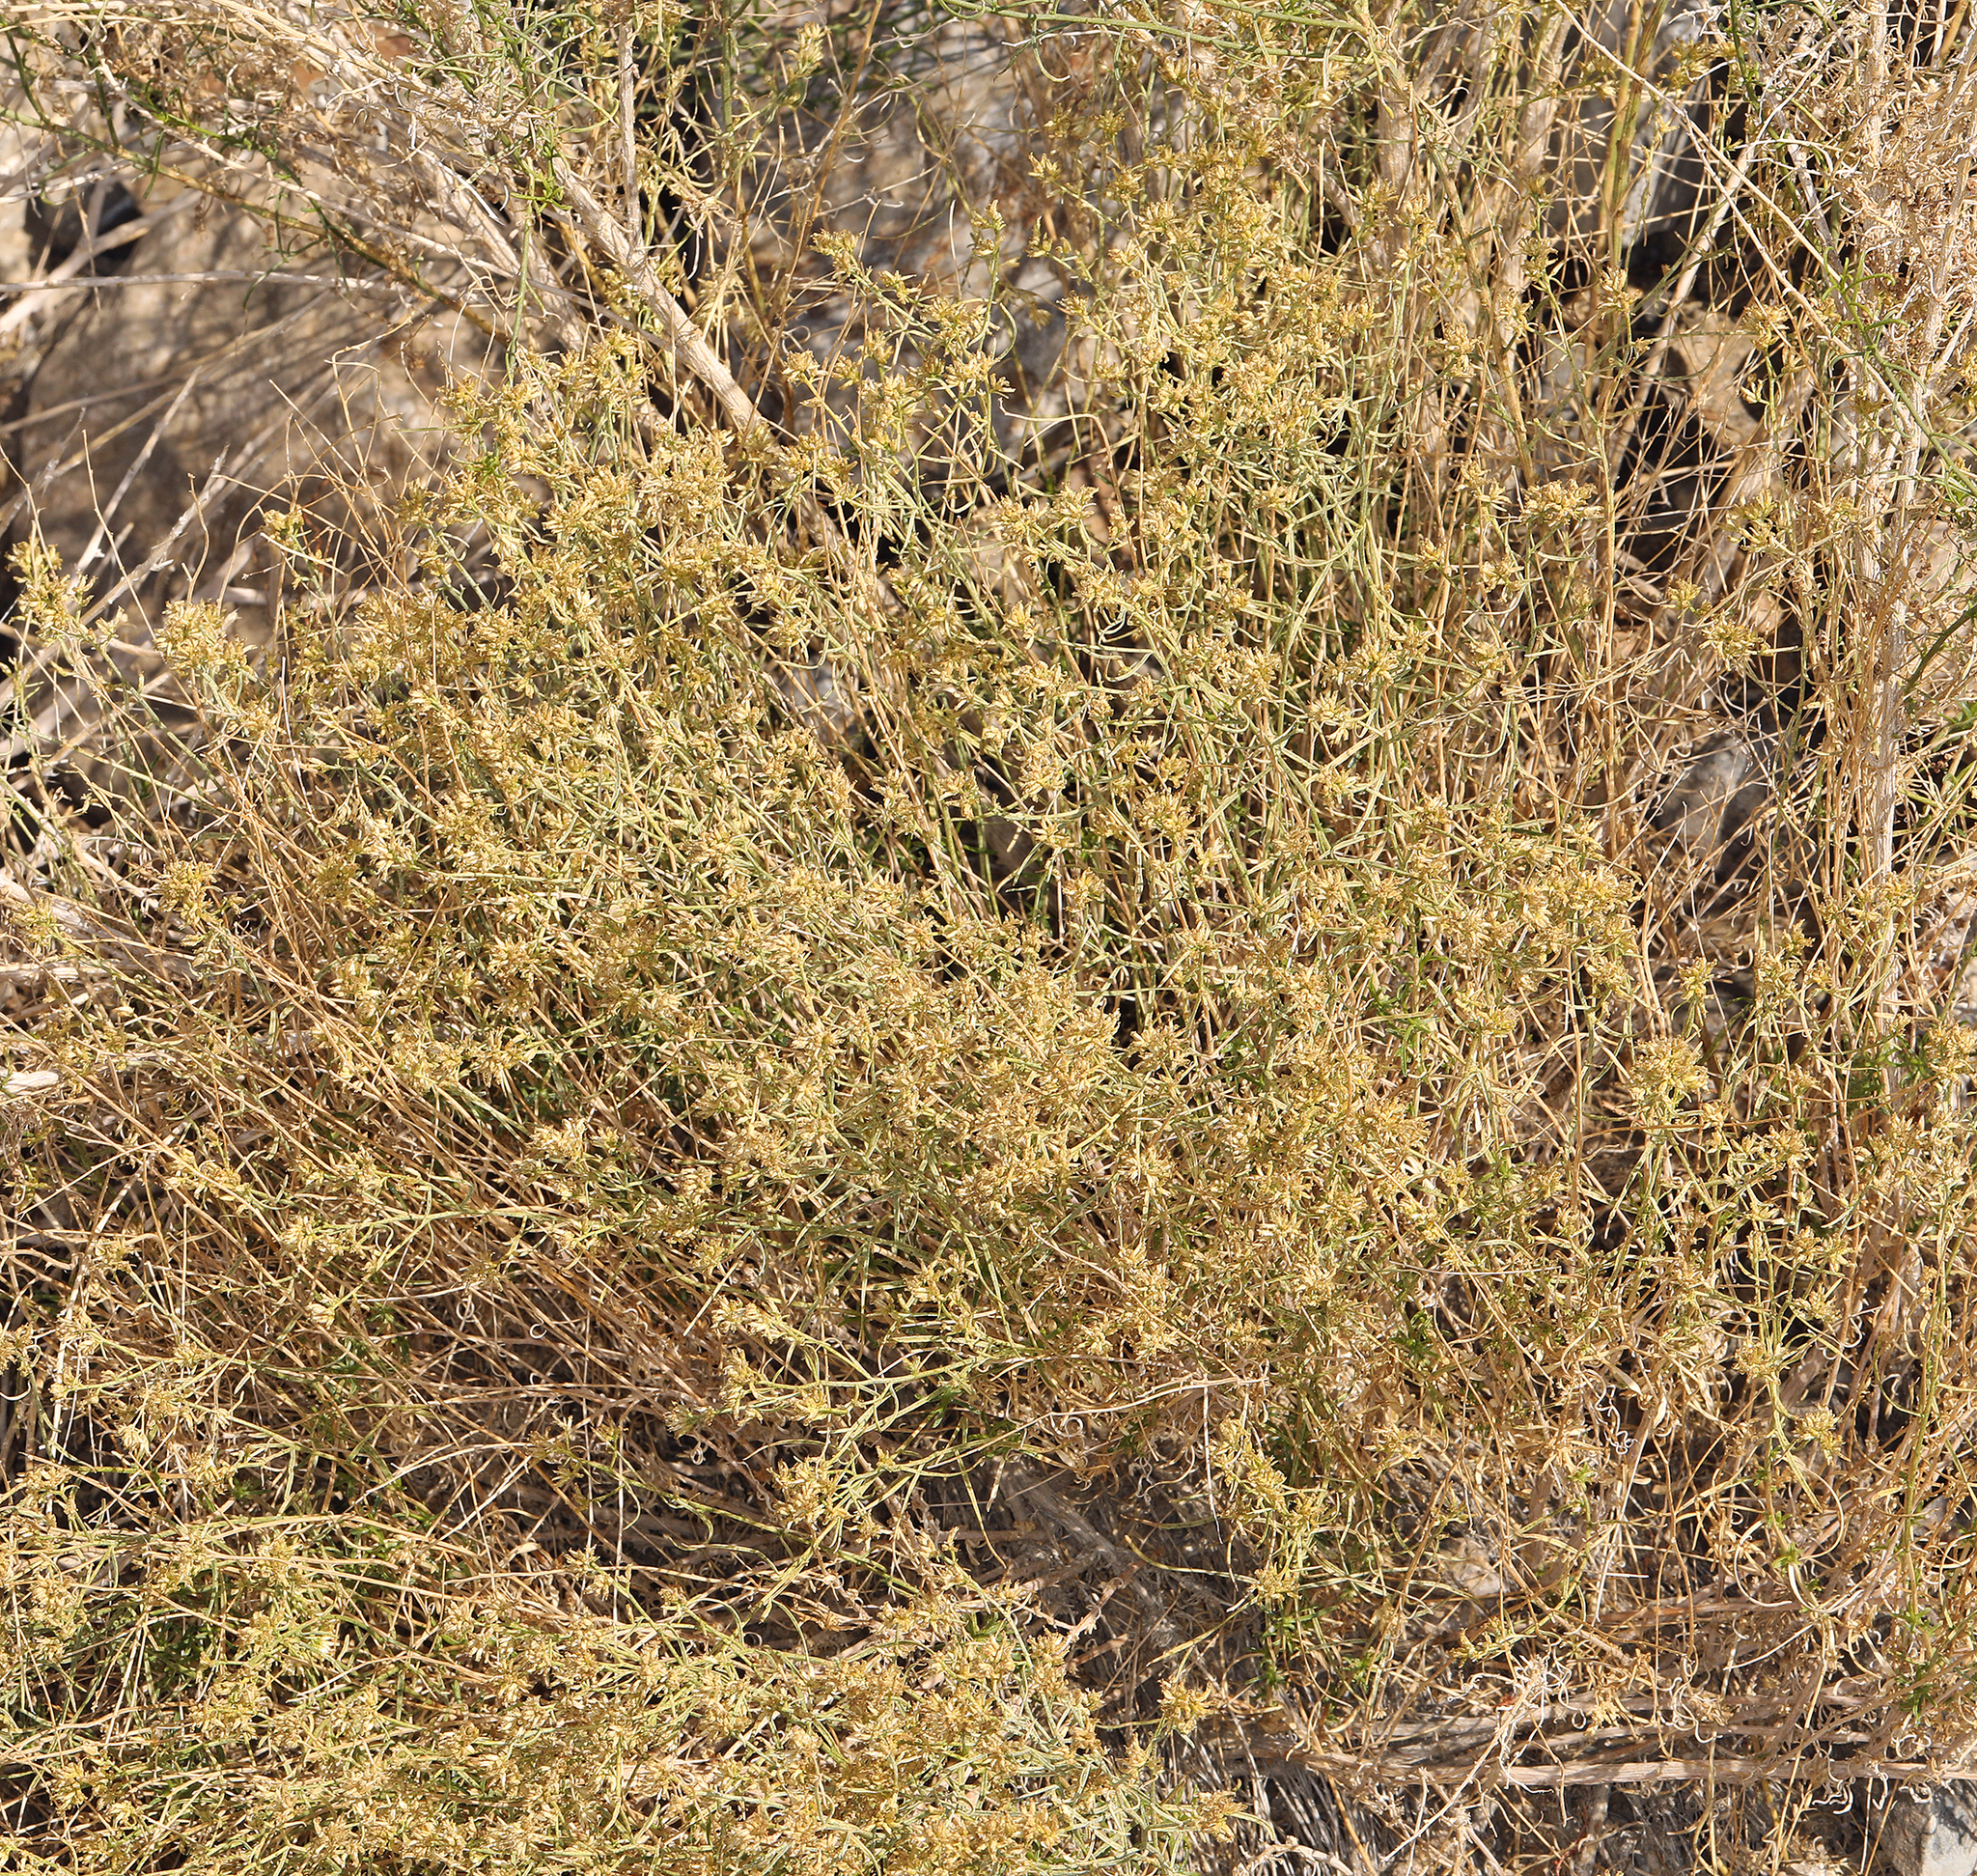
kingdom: Plantae
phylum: Tracheophyta
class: Magnoliopsida
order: Asterales
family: Asteraceae
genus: Gutierrezia
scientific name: Gutierrezia microcephala
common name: Thread snakeweed
